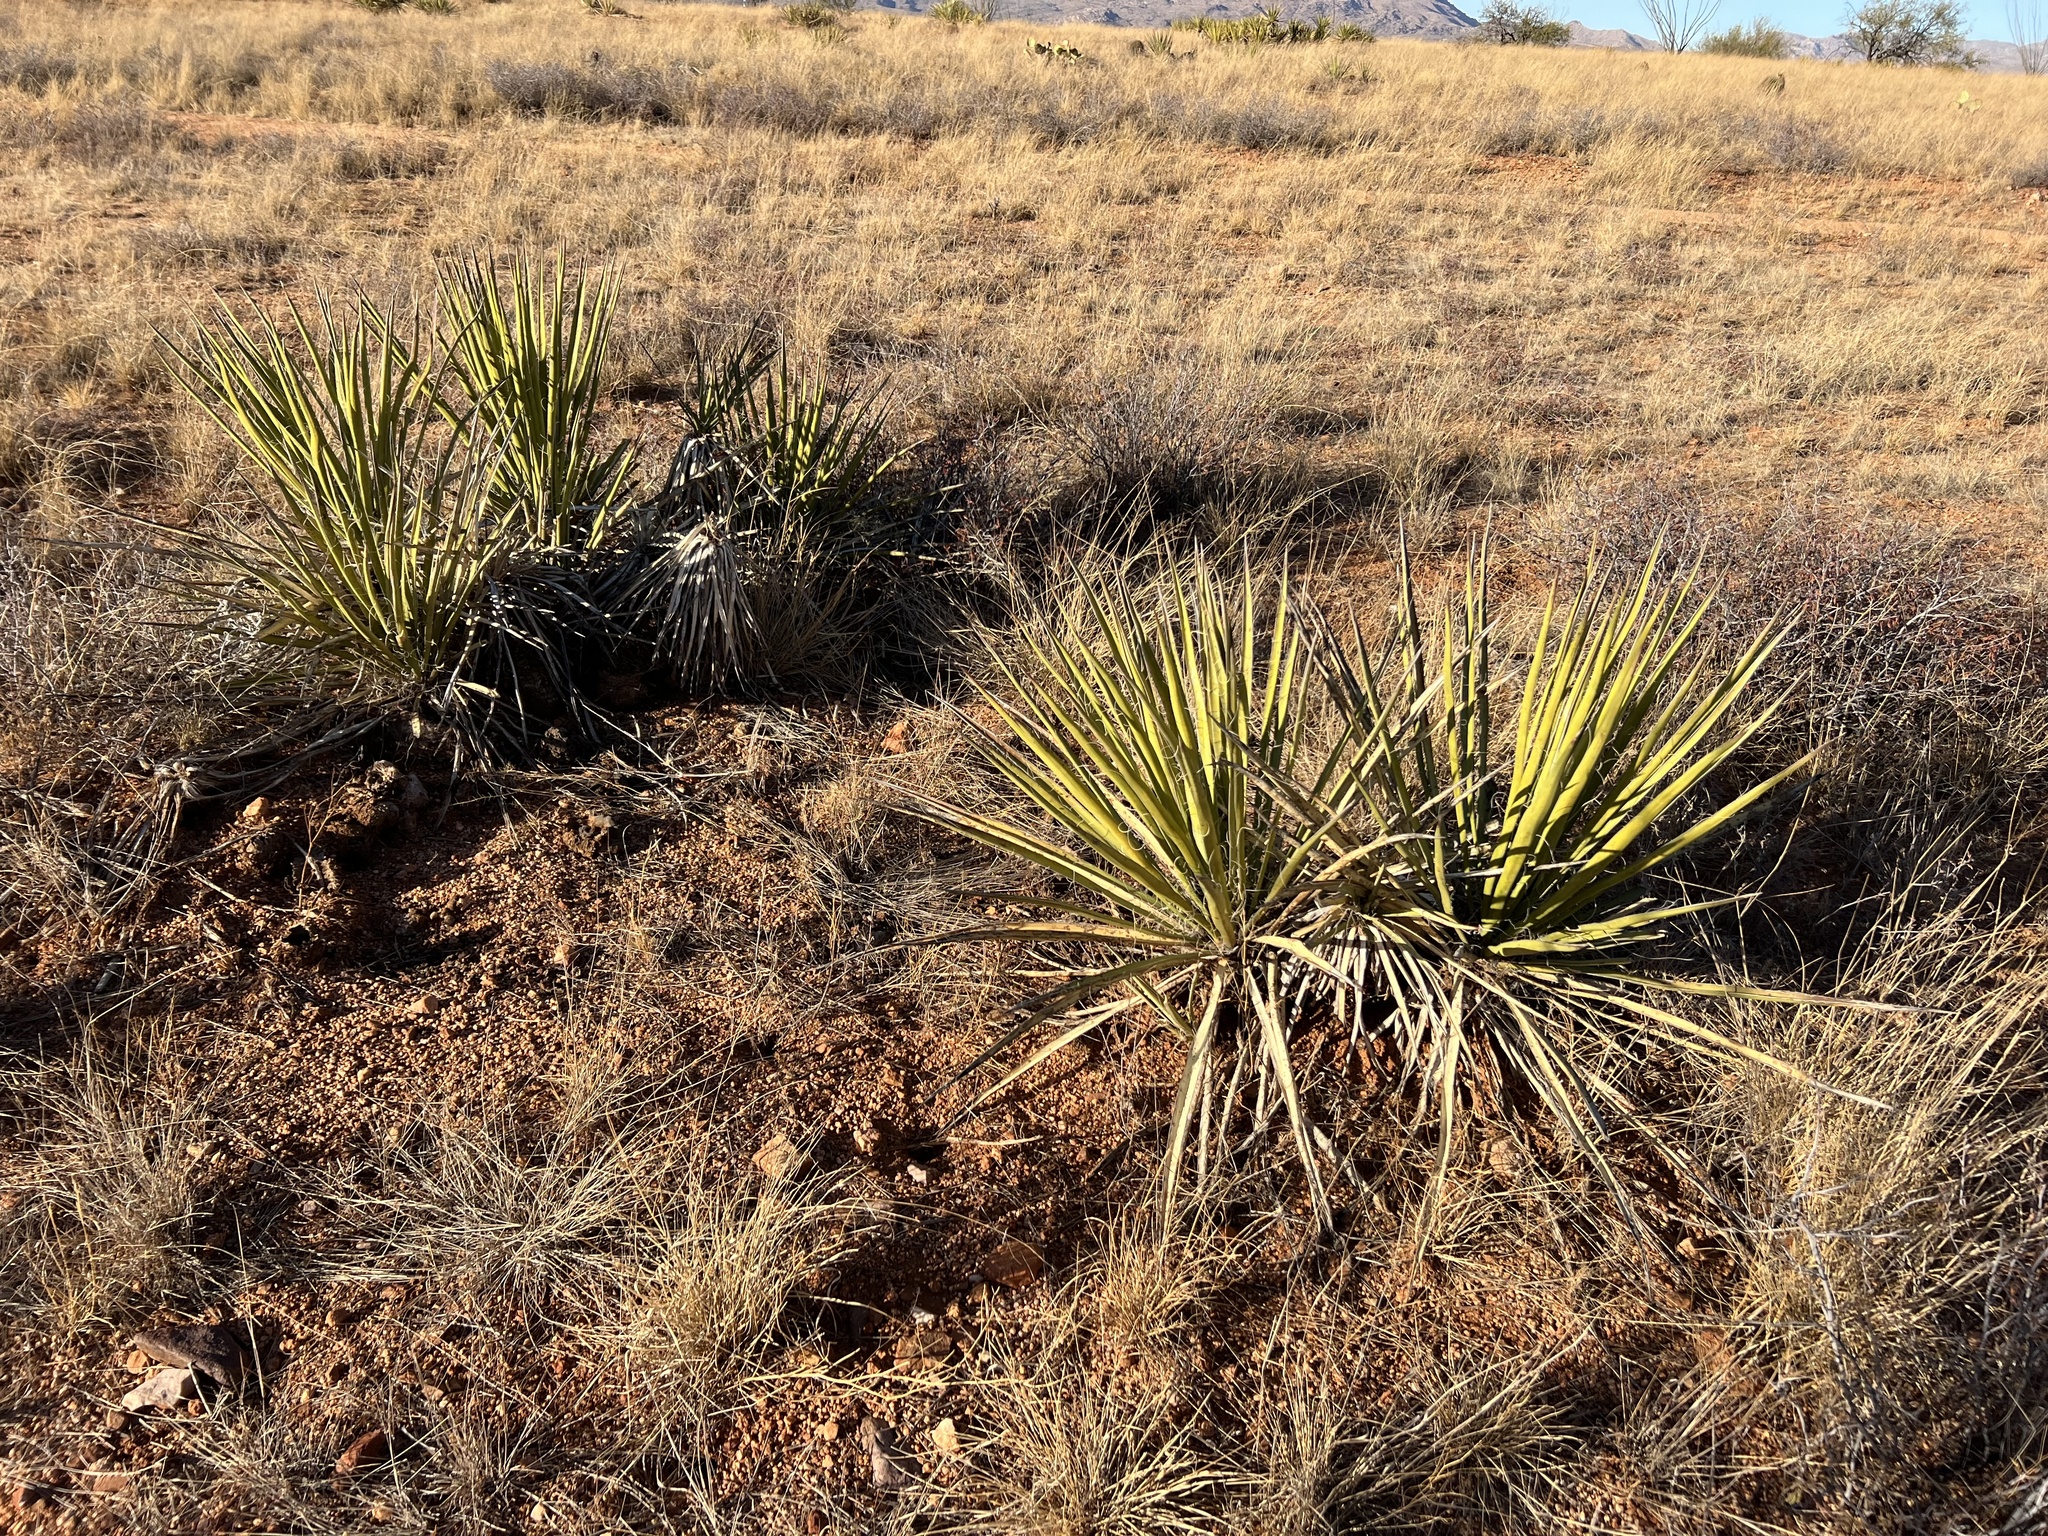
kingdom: Plantae
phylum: Tracheophyta
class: Liliopsida
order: Asparagales
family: Asparagaceae
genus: Yucca
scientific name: Yucca baccata
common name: Banana yucca
